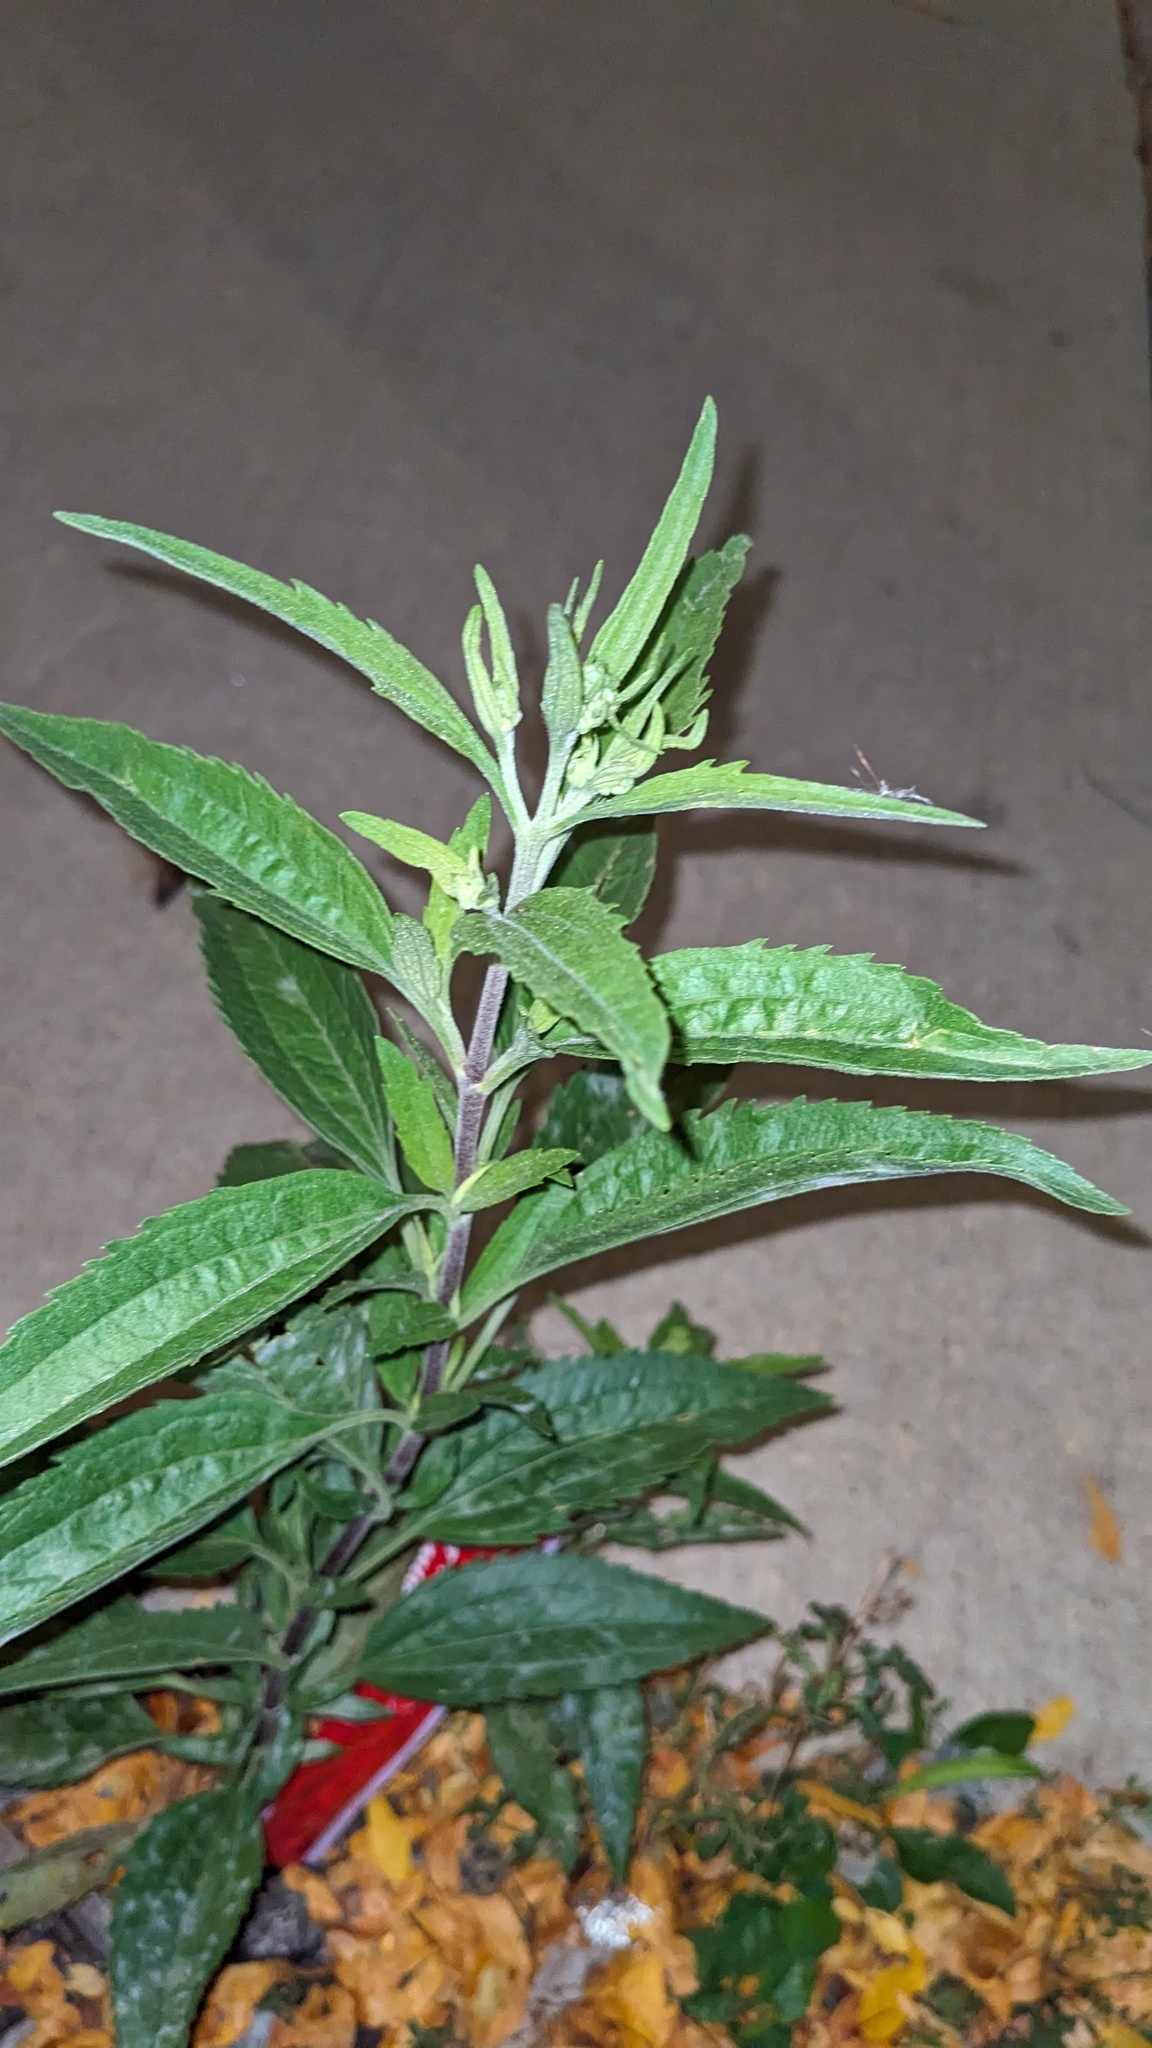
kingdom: Plantae
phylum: Tracheophyta
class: Magnoliopsida
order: Asterales
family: Asteraceae
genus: Eupatorium
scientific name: Eupatorium serotinum
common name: Late boneset
